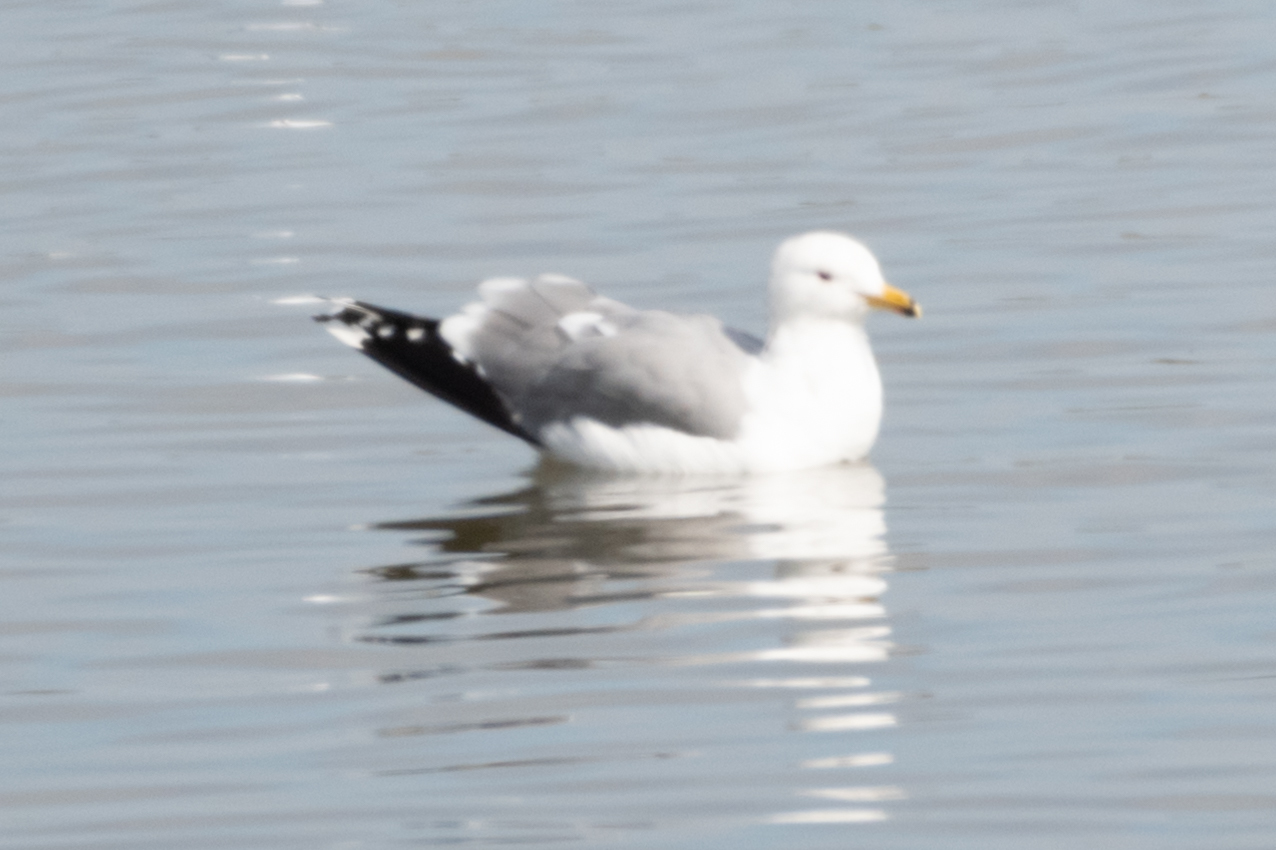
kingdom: Animalia
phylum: Chordata
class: Aves
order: Charadriiformes
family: Laridae
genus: Larus
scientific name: Larus californicus
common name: California gull
